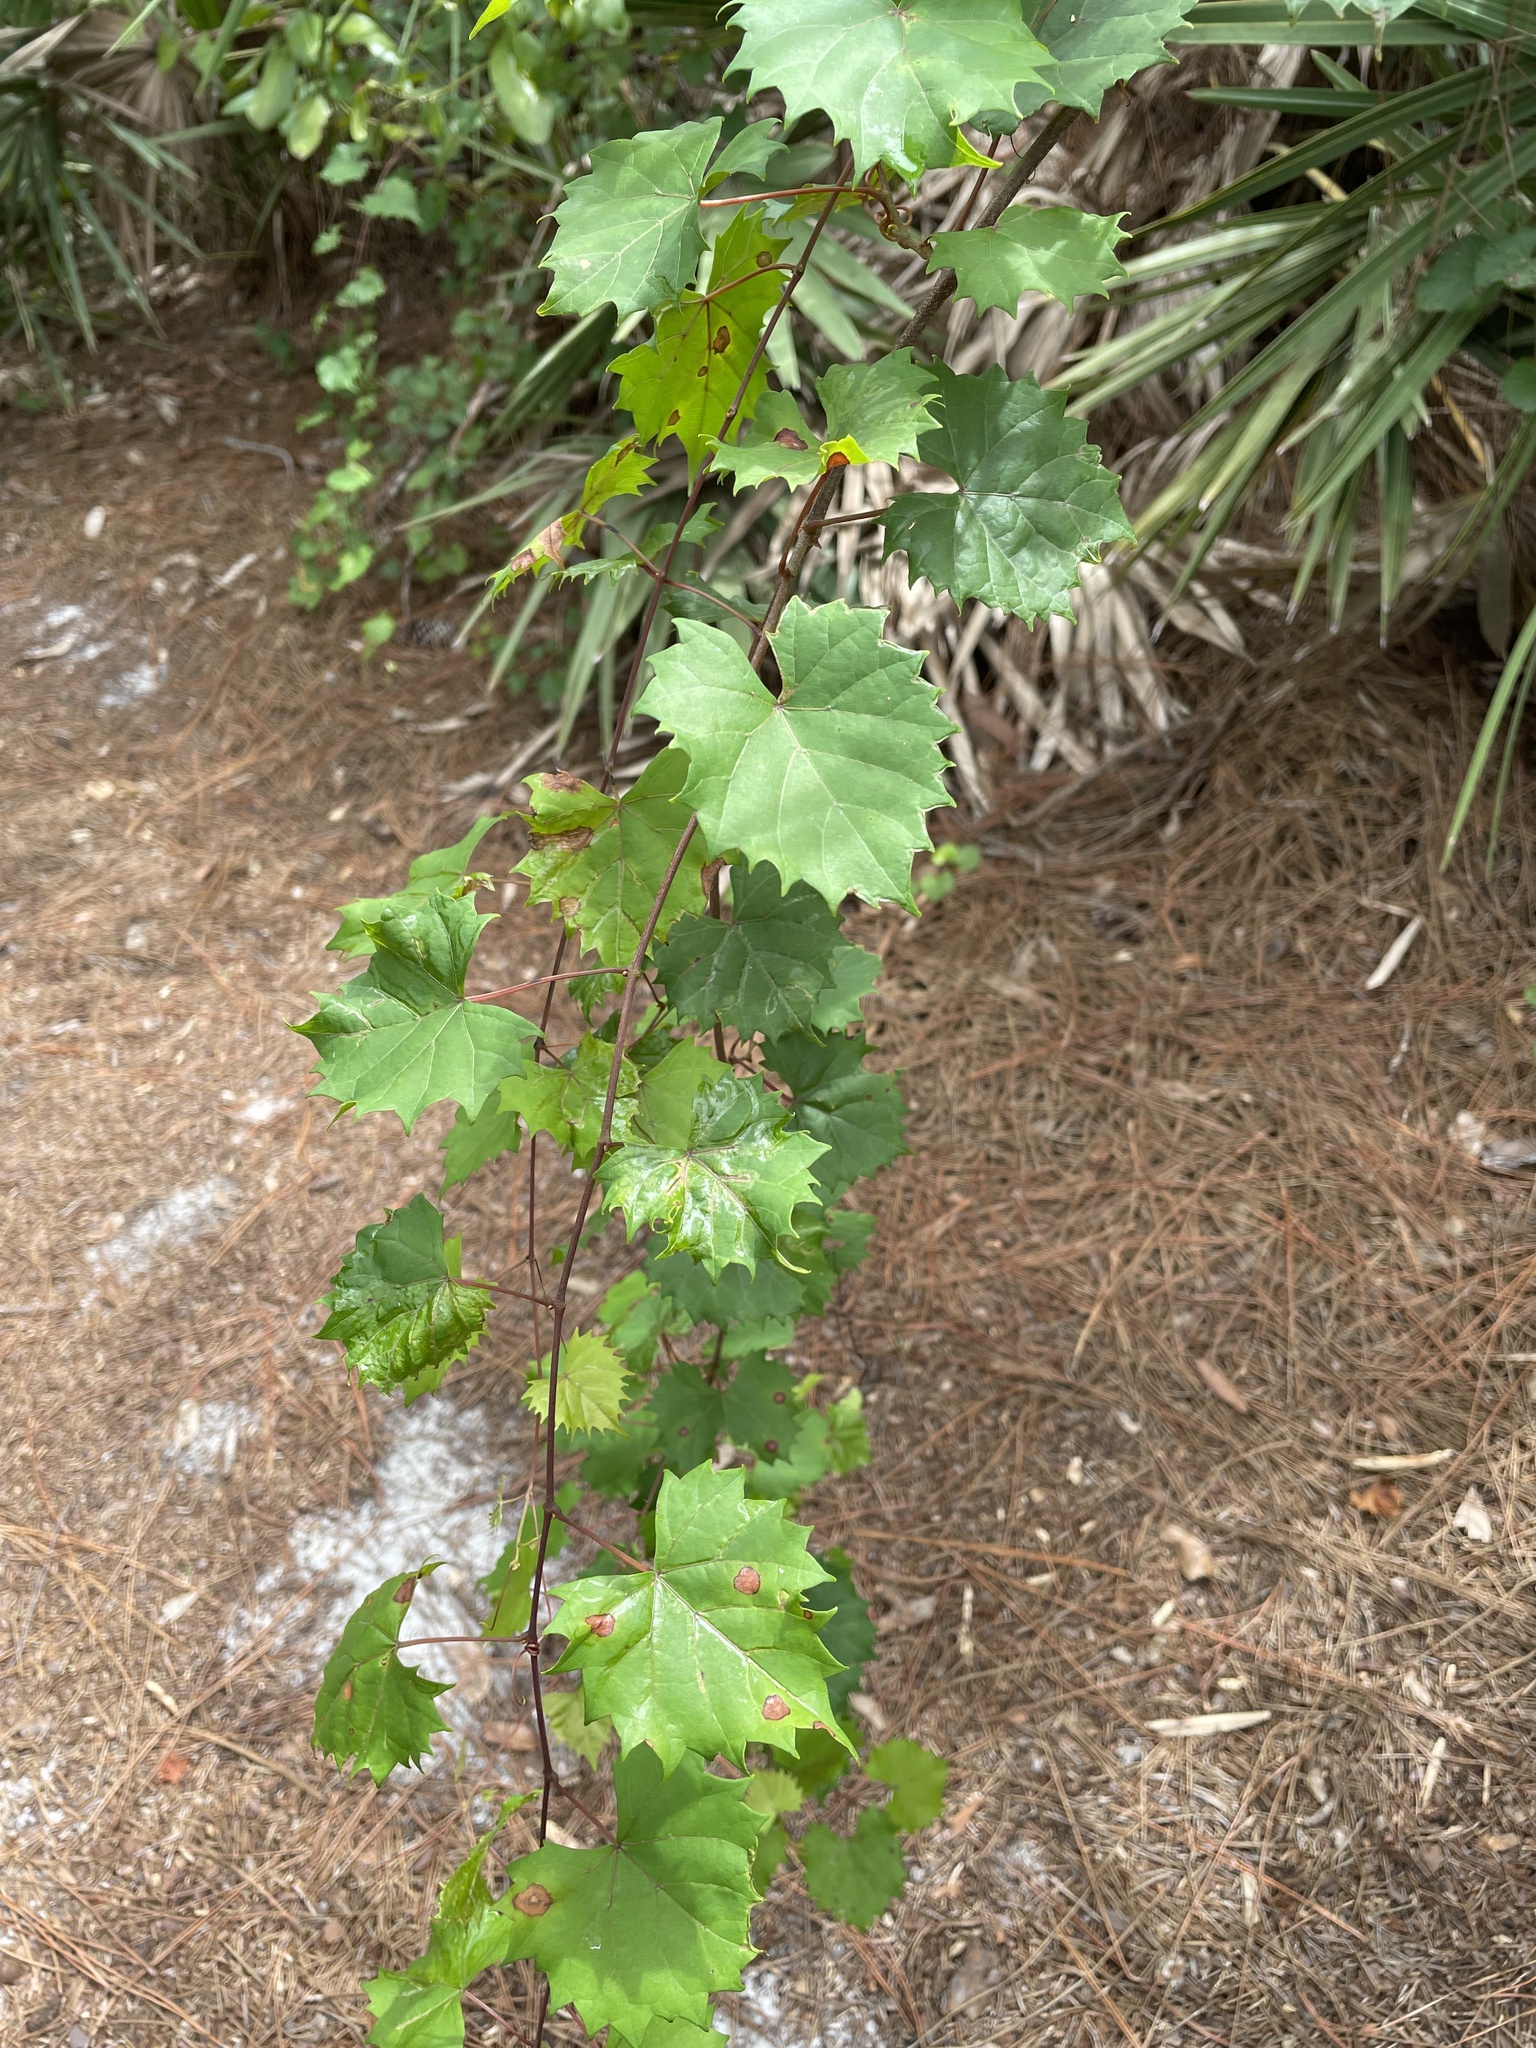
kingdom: Plantae
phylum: Tracheophyta
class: Magnoliopsida
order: Vitales
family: Vitaceae
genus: Vitis
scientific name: Vitis rotundifolia
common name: Muscadine grape
